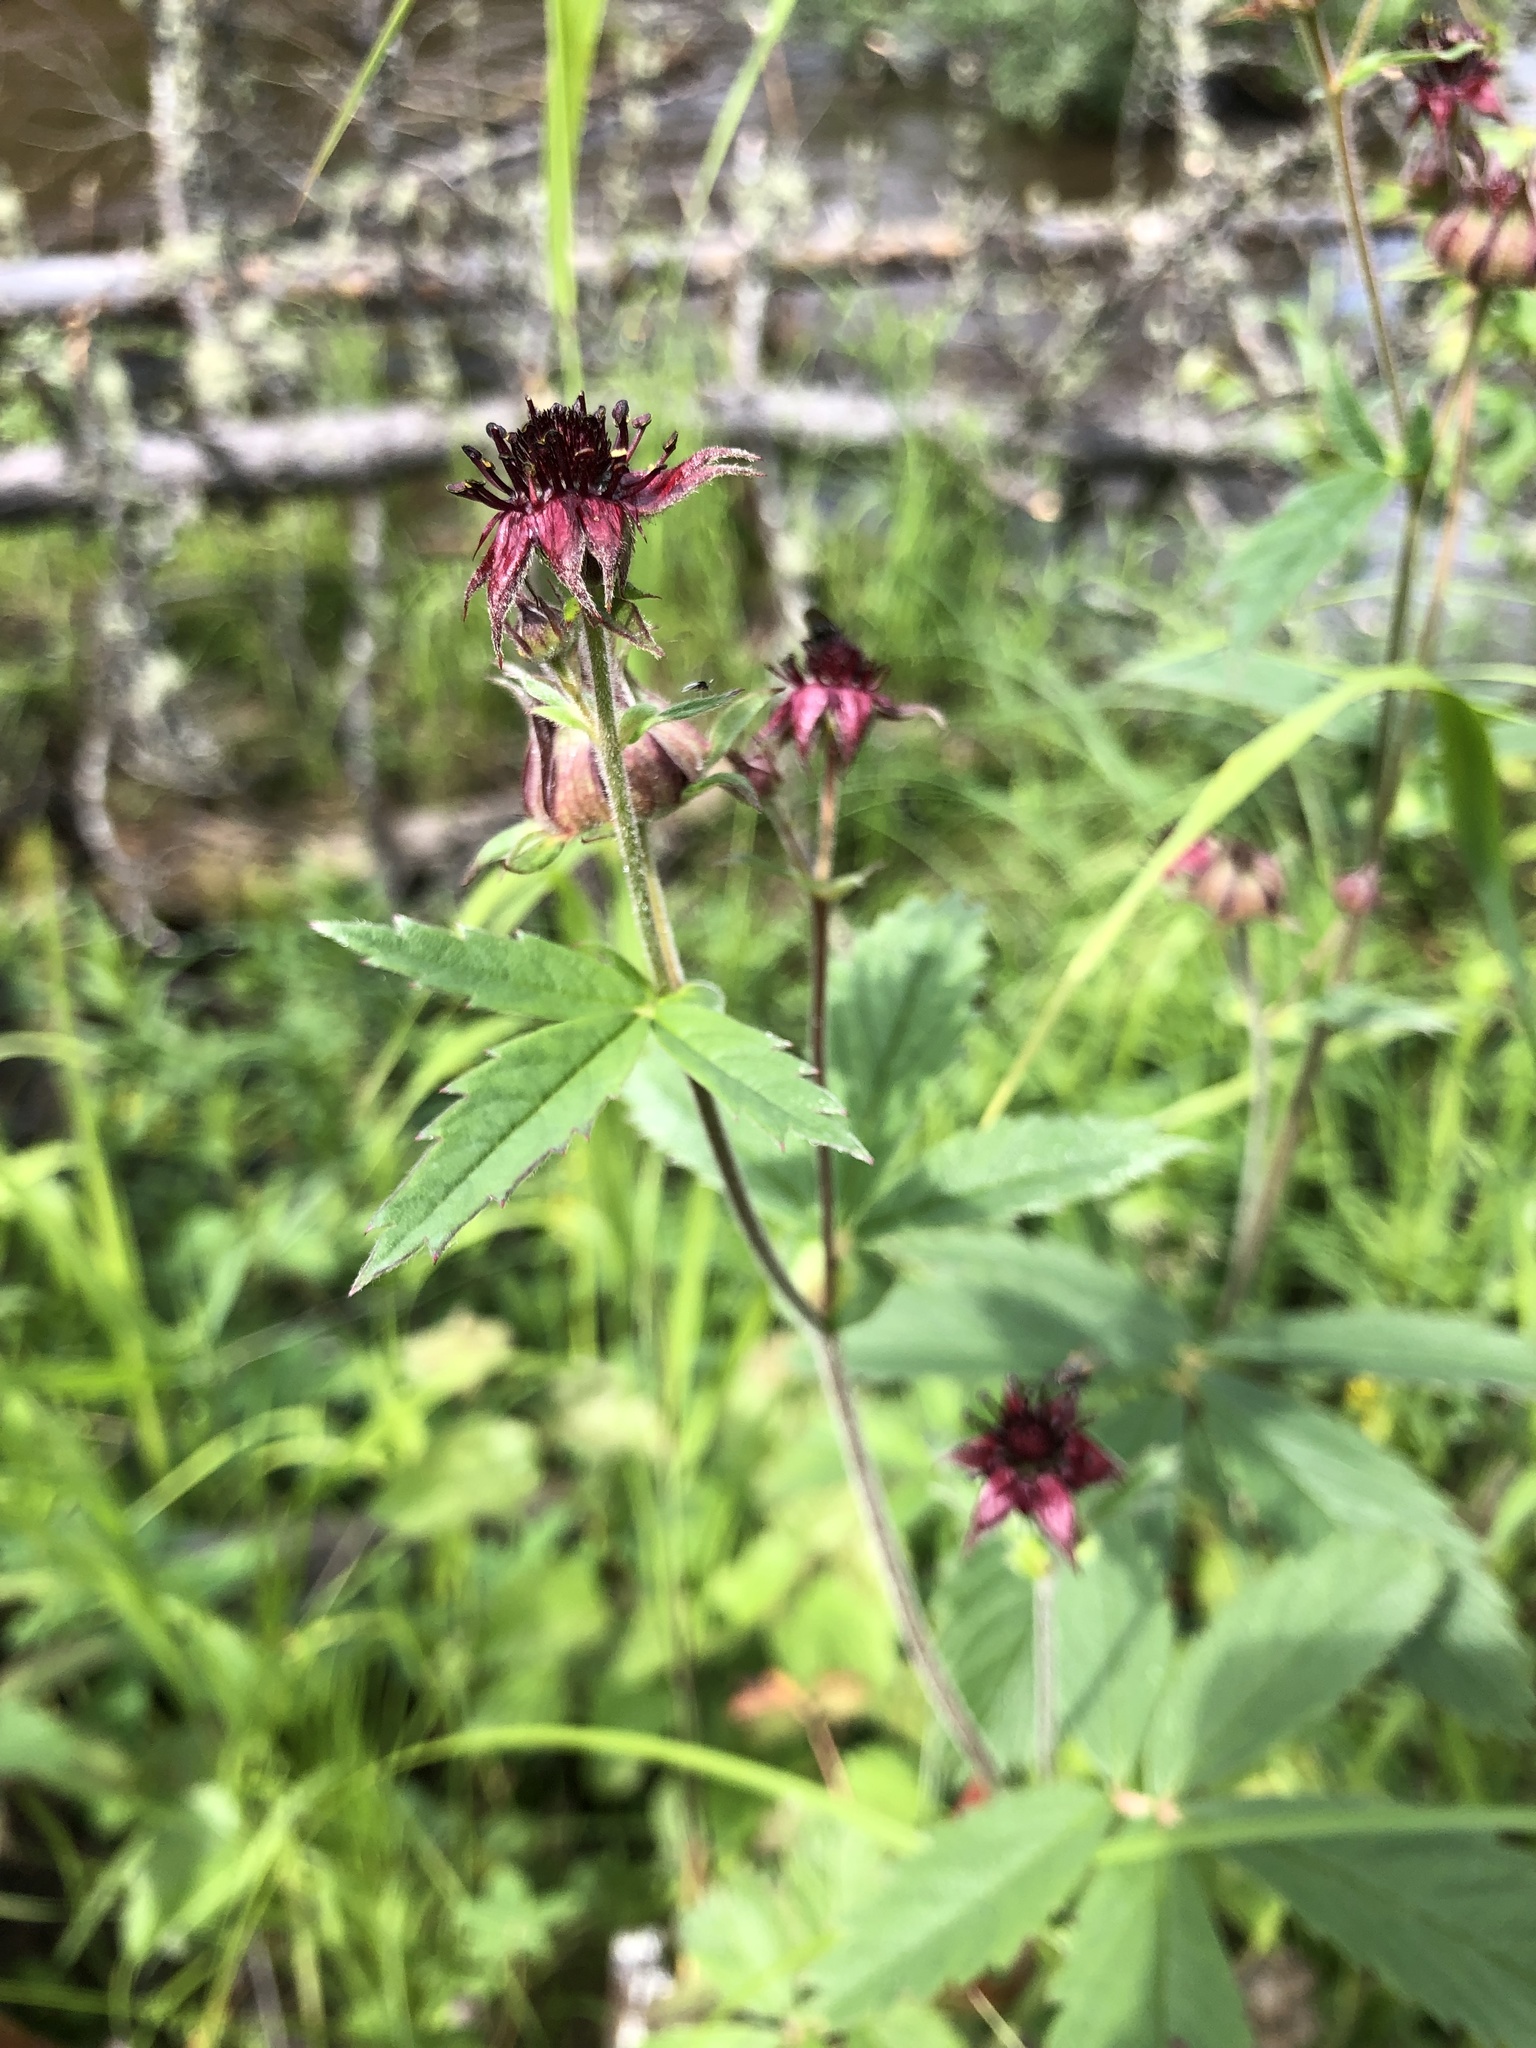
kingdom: Plantae
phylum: Tracheophyta
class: Magnoliopsida
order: Rosales
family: Rosaceae
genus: Comarum
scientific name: Comarum palustre
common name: Marsh cinquefoil
